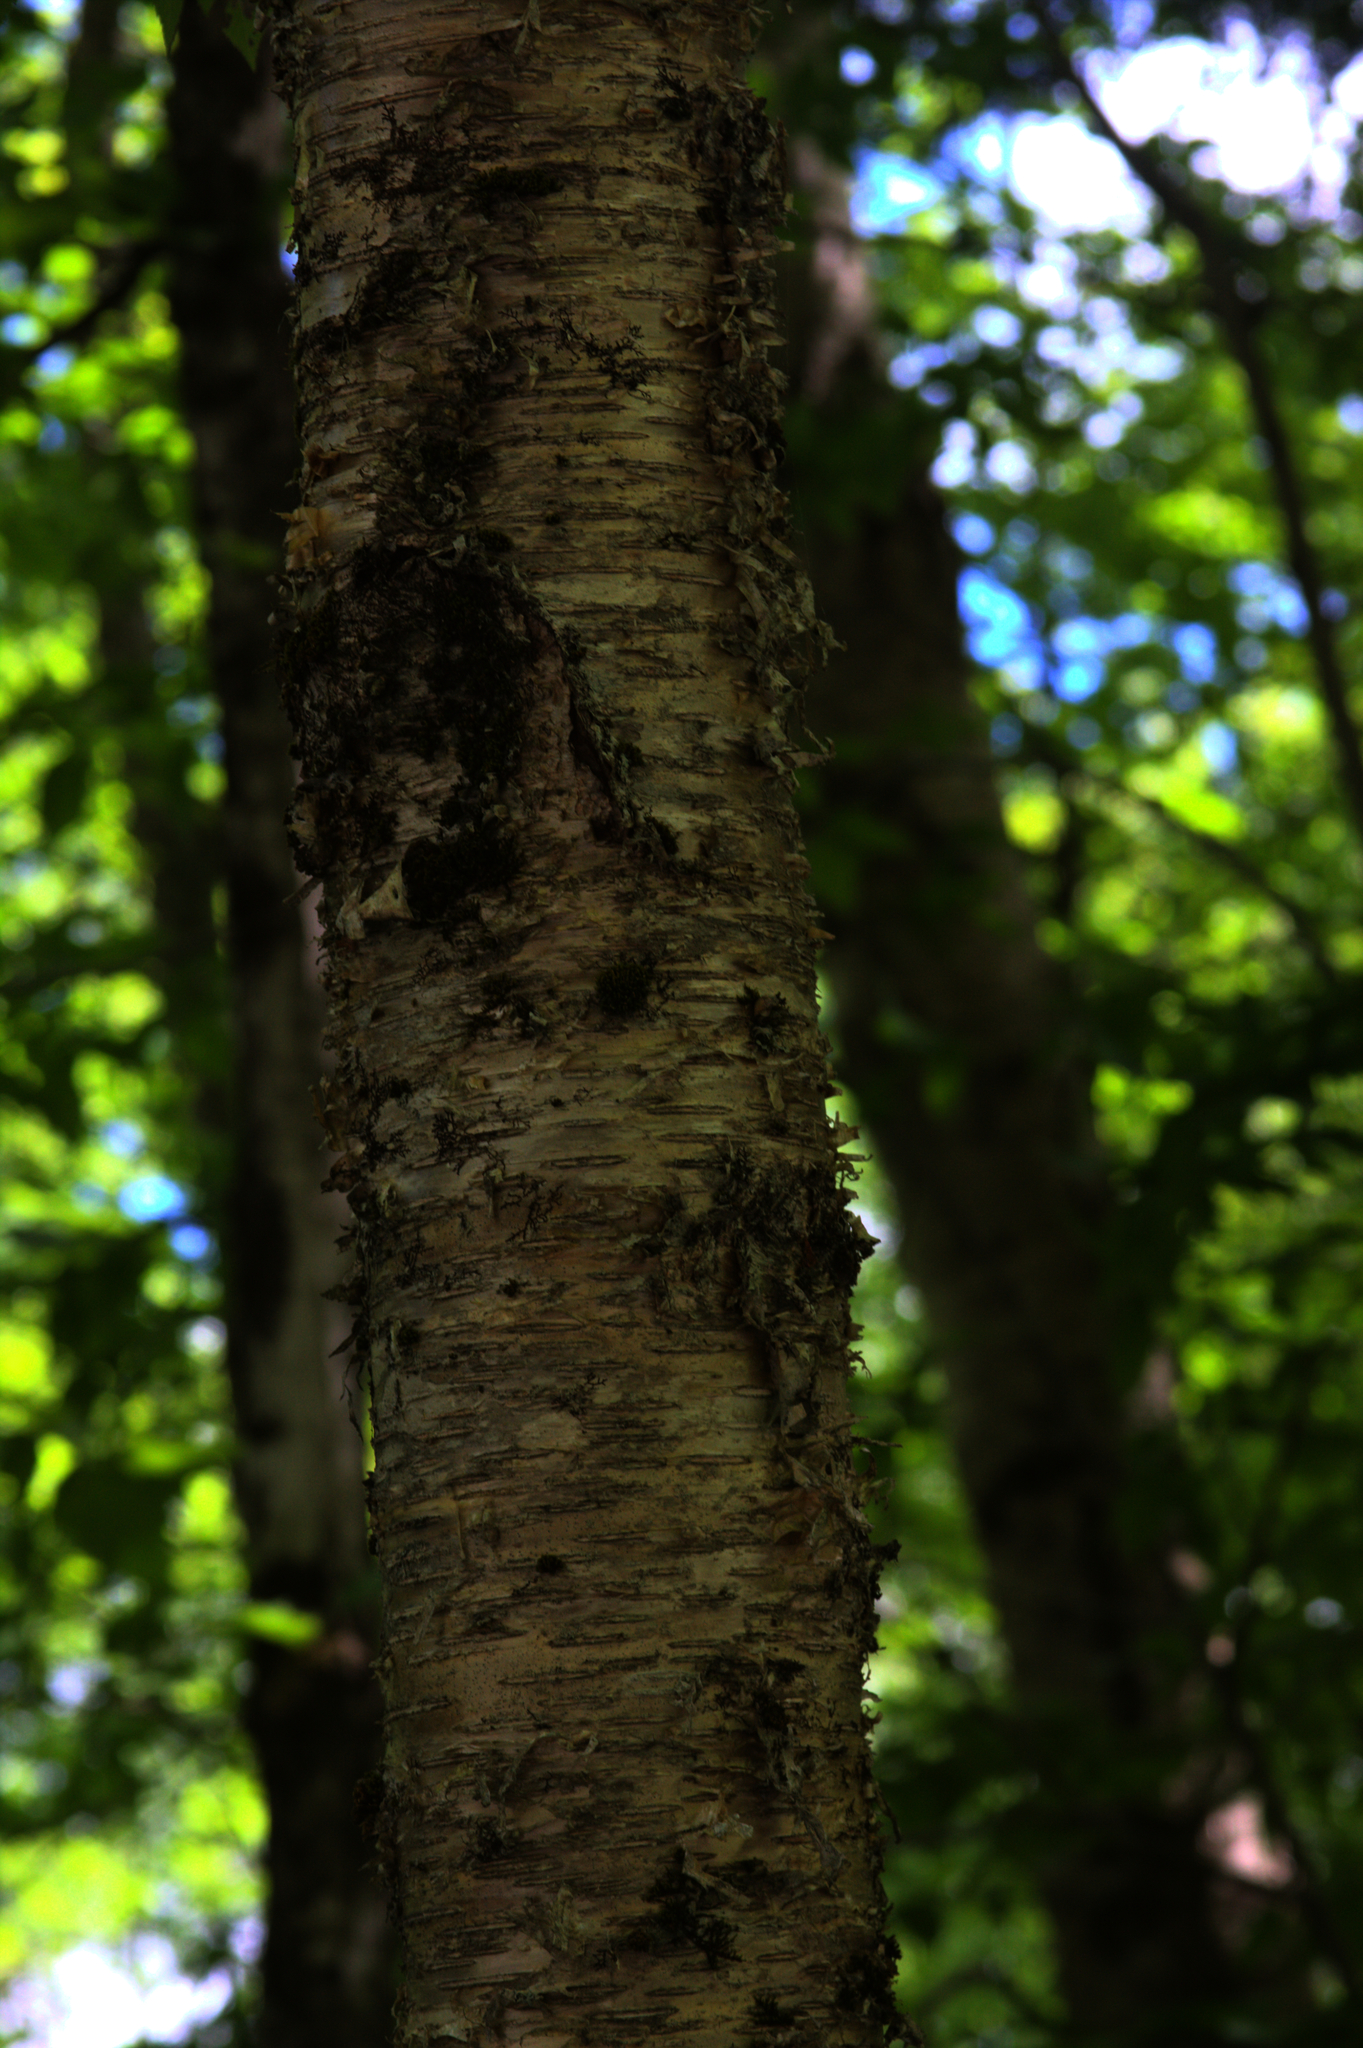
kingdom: Plantae
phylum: Tracheophyta
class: Magnoliopsida
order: Fagales
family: Betulaceae
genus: Betula
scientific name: Betula alleghaniensis
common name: Yellow birch
